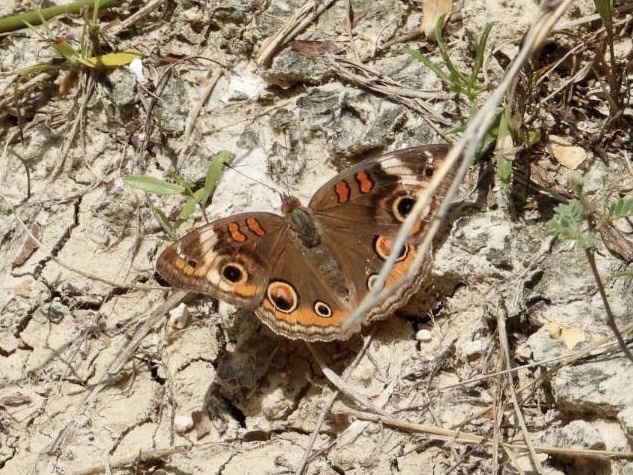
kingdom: Animalia
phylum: Arthropoda
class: Insecta
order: Lepidoptera
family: Nymphalidae
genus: Junonia
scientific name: Junonia coenia
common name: Common buckeye
